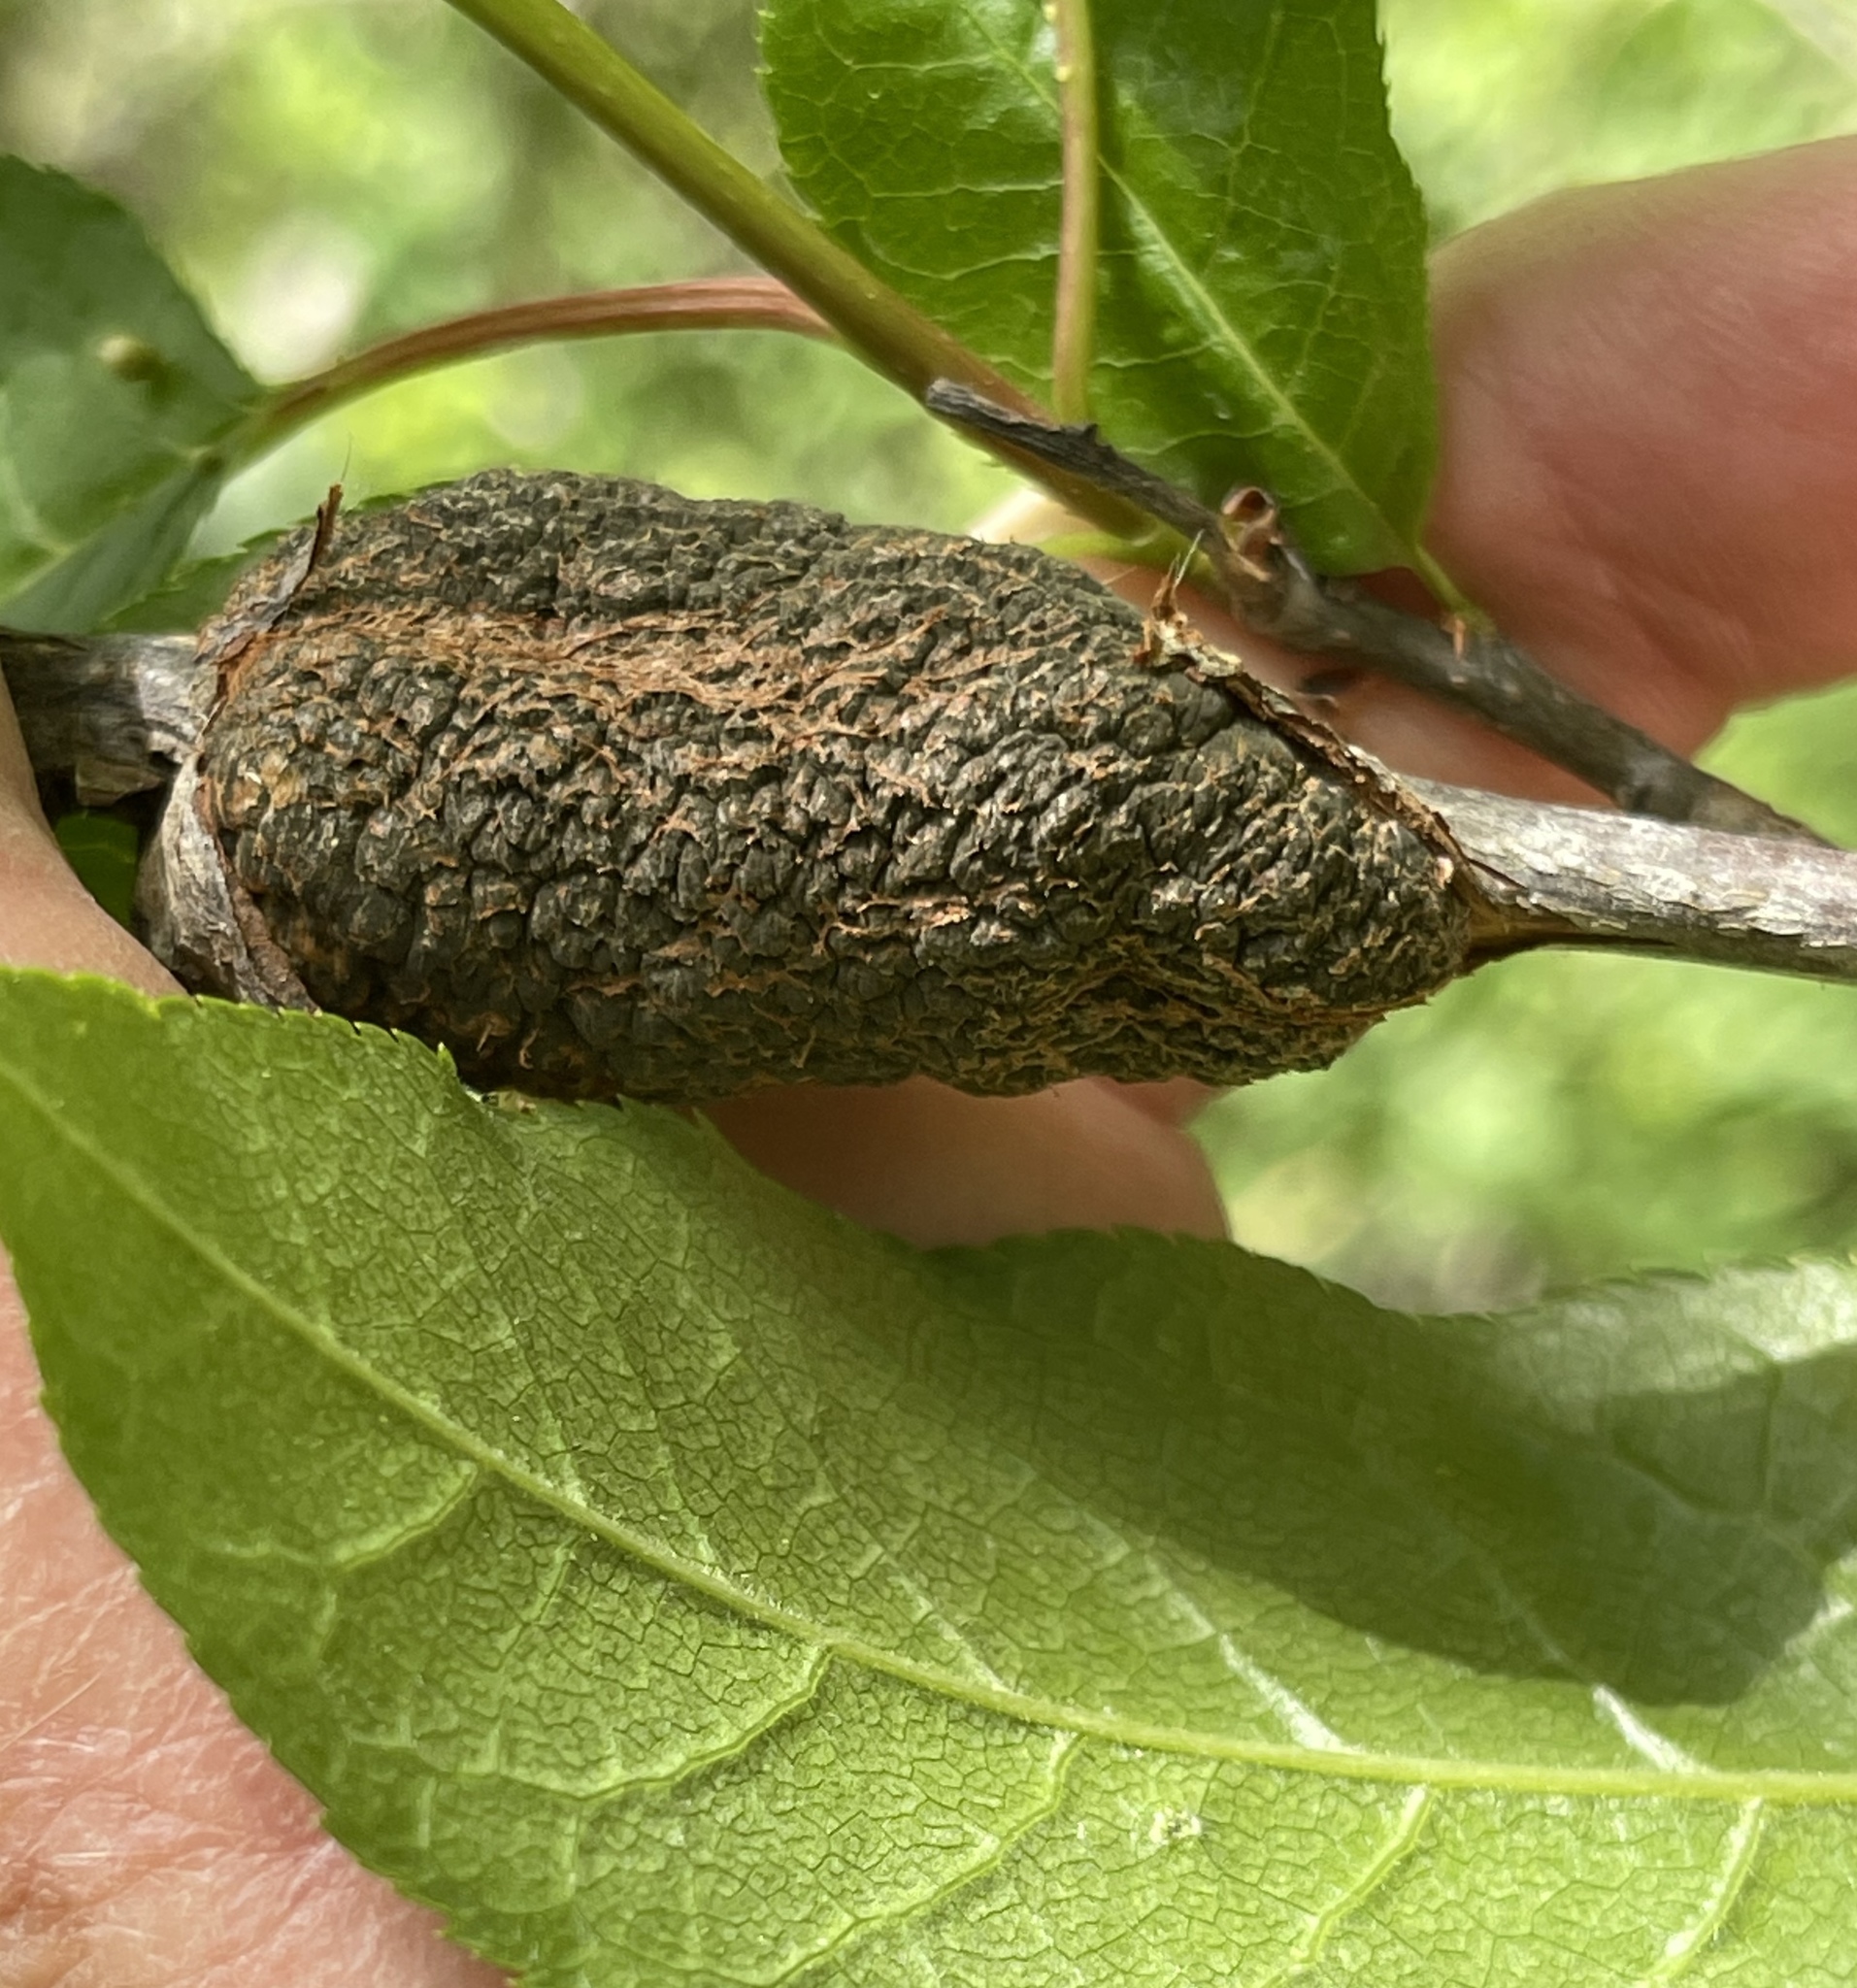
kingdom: Fungi
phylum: Ascomycota
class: Dothideomycetes
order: Venturiales
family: Venturiaceae
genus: Apiosporina
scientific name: Apiosporina morbosa
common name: Black knot
